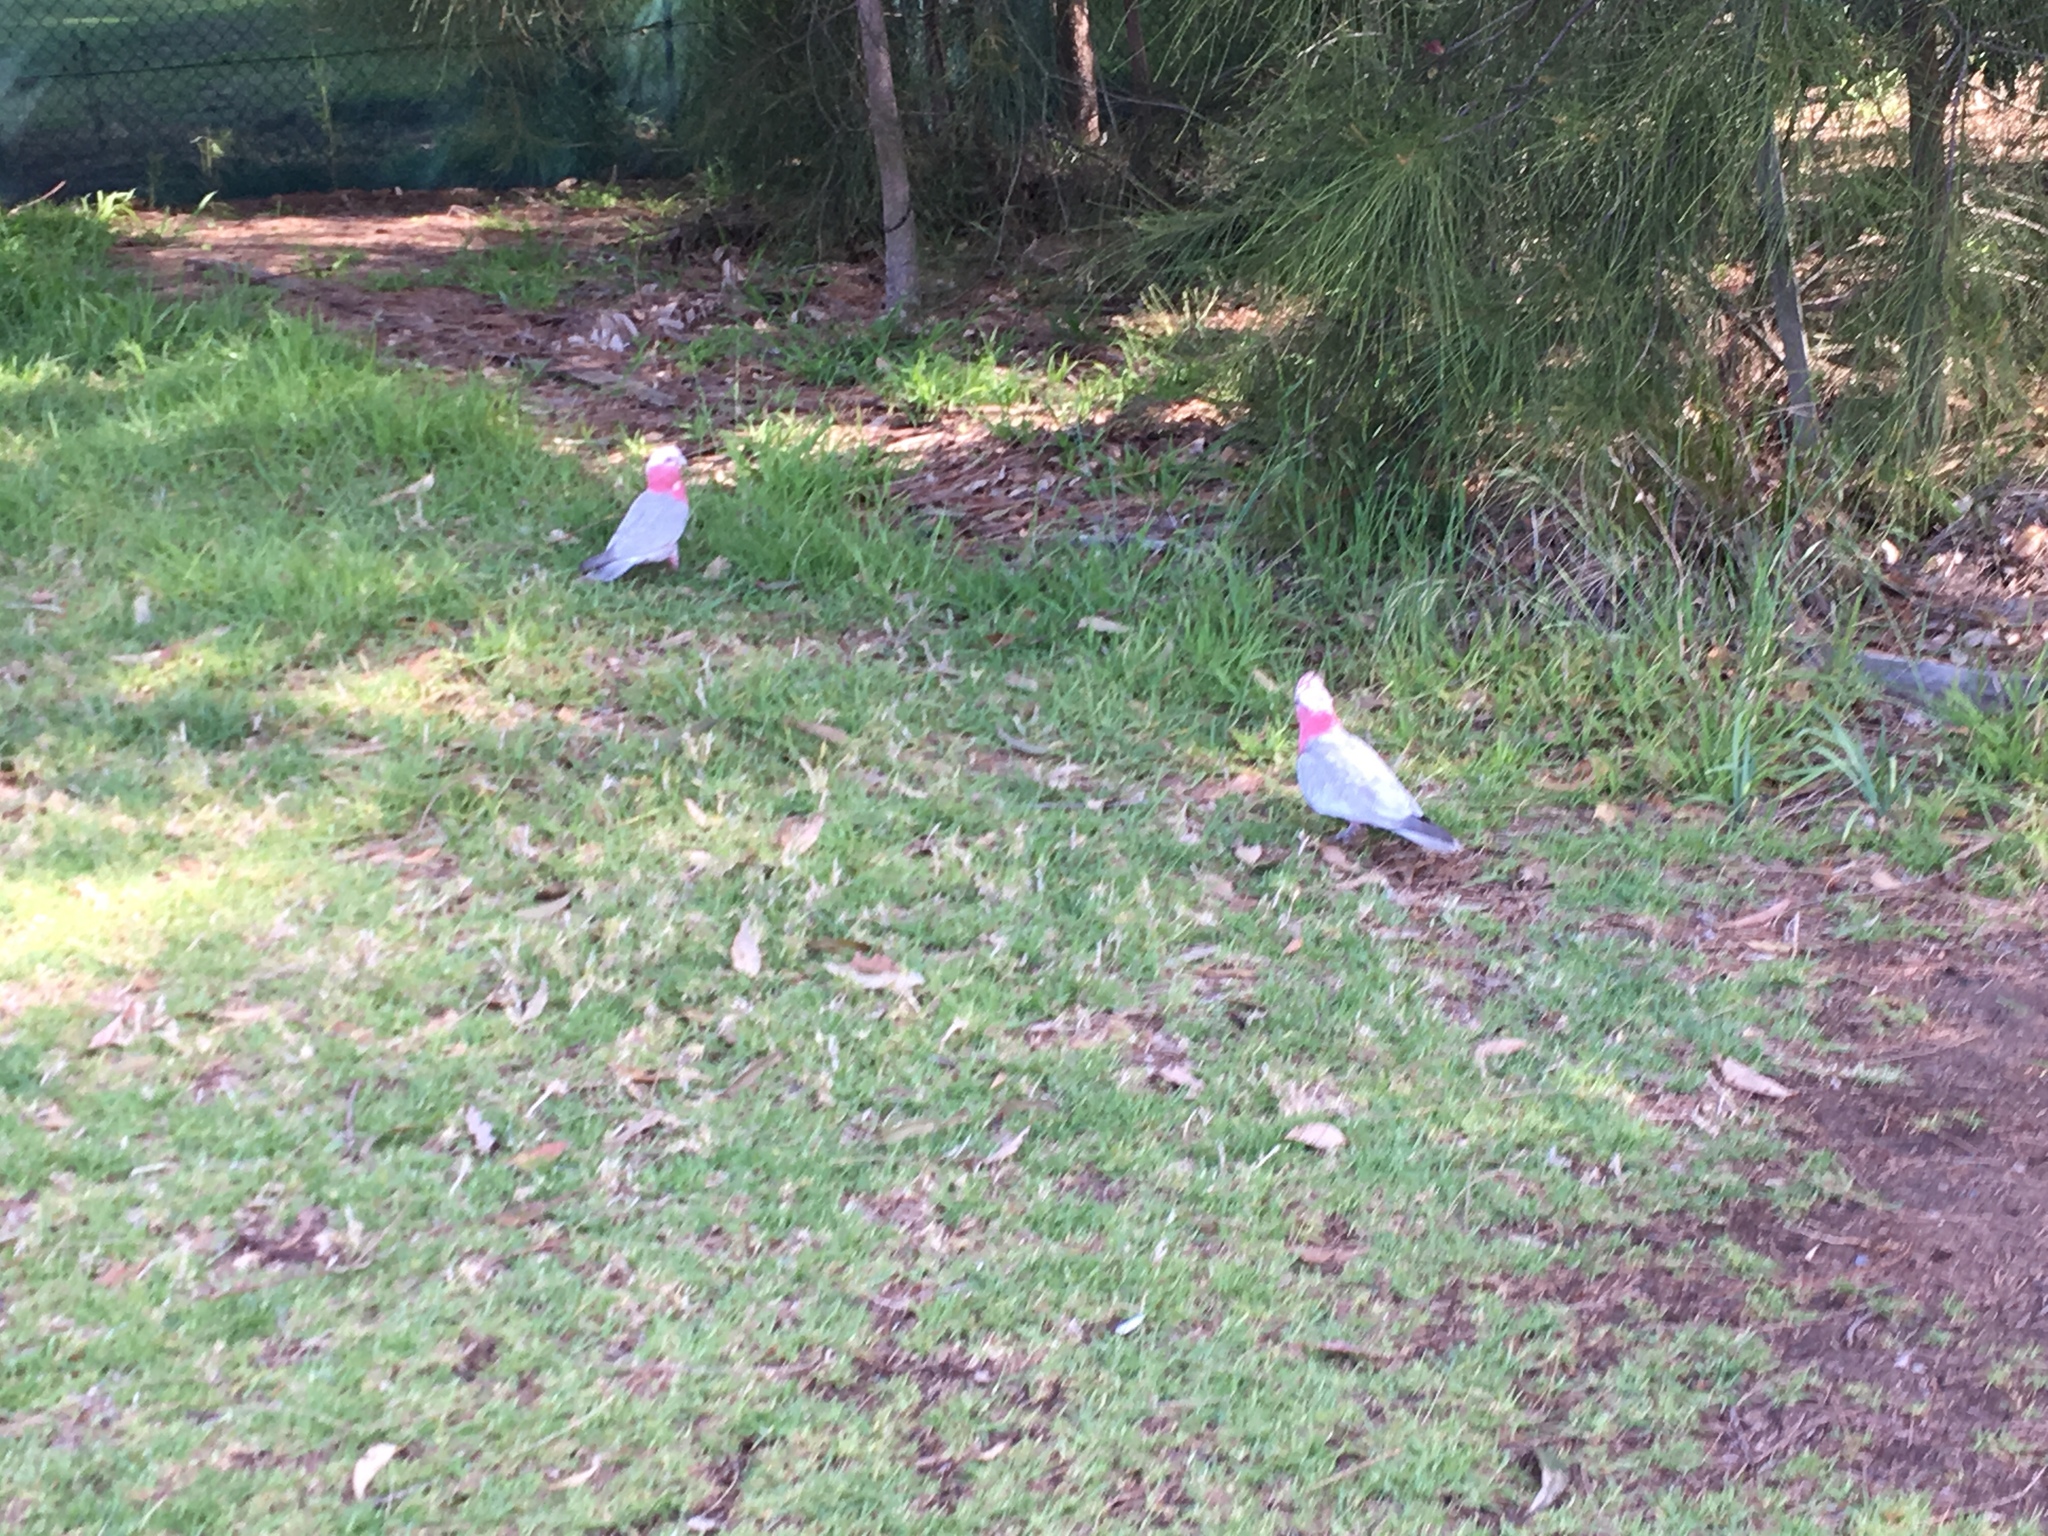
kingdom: Animalia
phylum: Chordata
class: Aves
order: Psittaciformes
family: Psittacidae
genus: Eolophus
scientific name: Eolophus roseicapilla
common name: Galah
